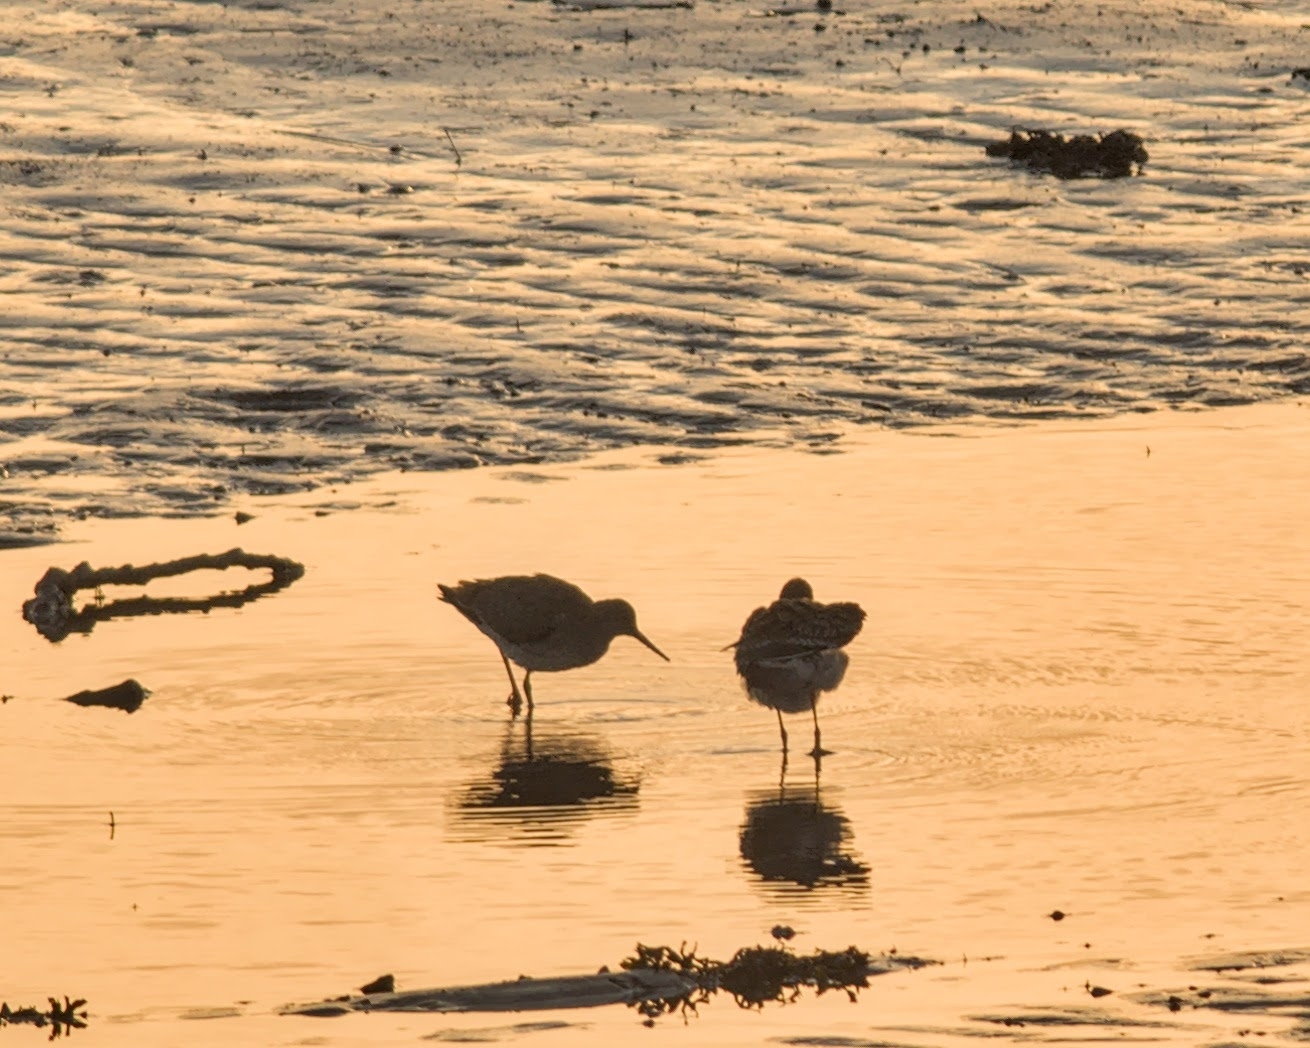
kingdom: Animalia
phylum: Chordata
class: Aves
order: Charadriiformes
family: Scolopacidae
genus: Tringa
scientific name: Tringa totanus
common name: Common redshank
